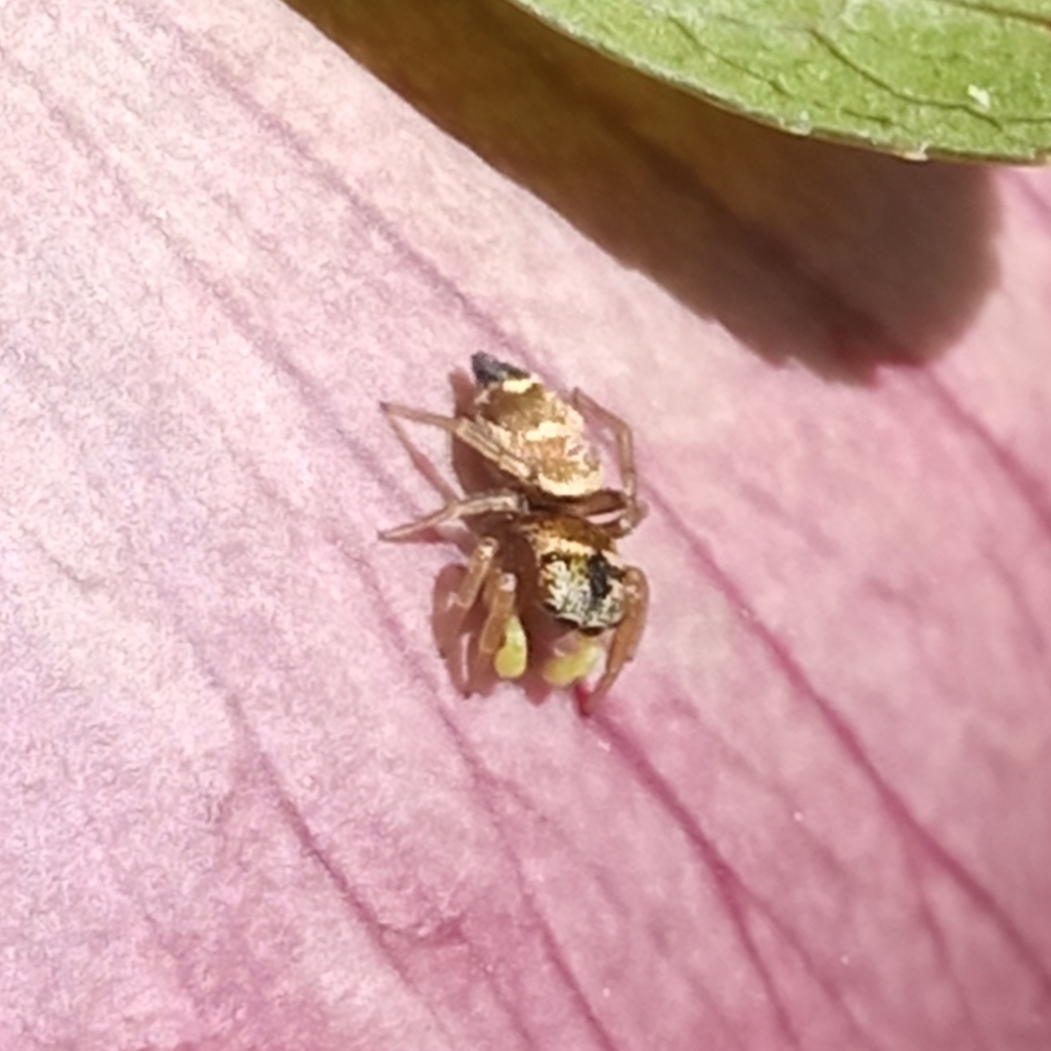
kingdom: Animalia
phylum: Arthropoda
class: Arachnida
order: Araneae
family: Salticidae
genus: Heliophanus
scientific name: Heliophanus tribulosus
